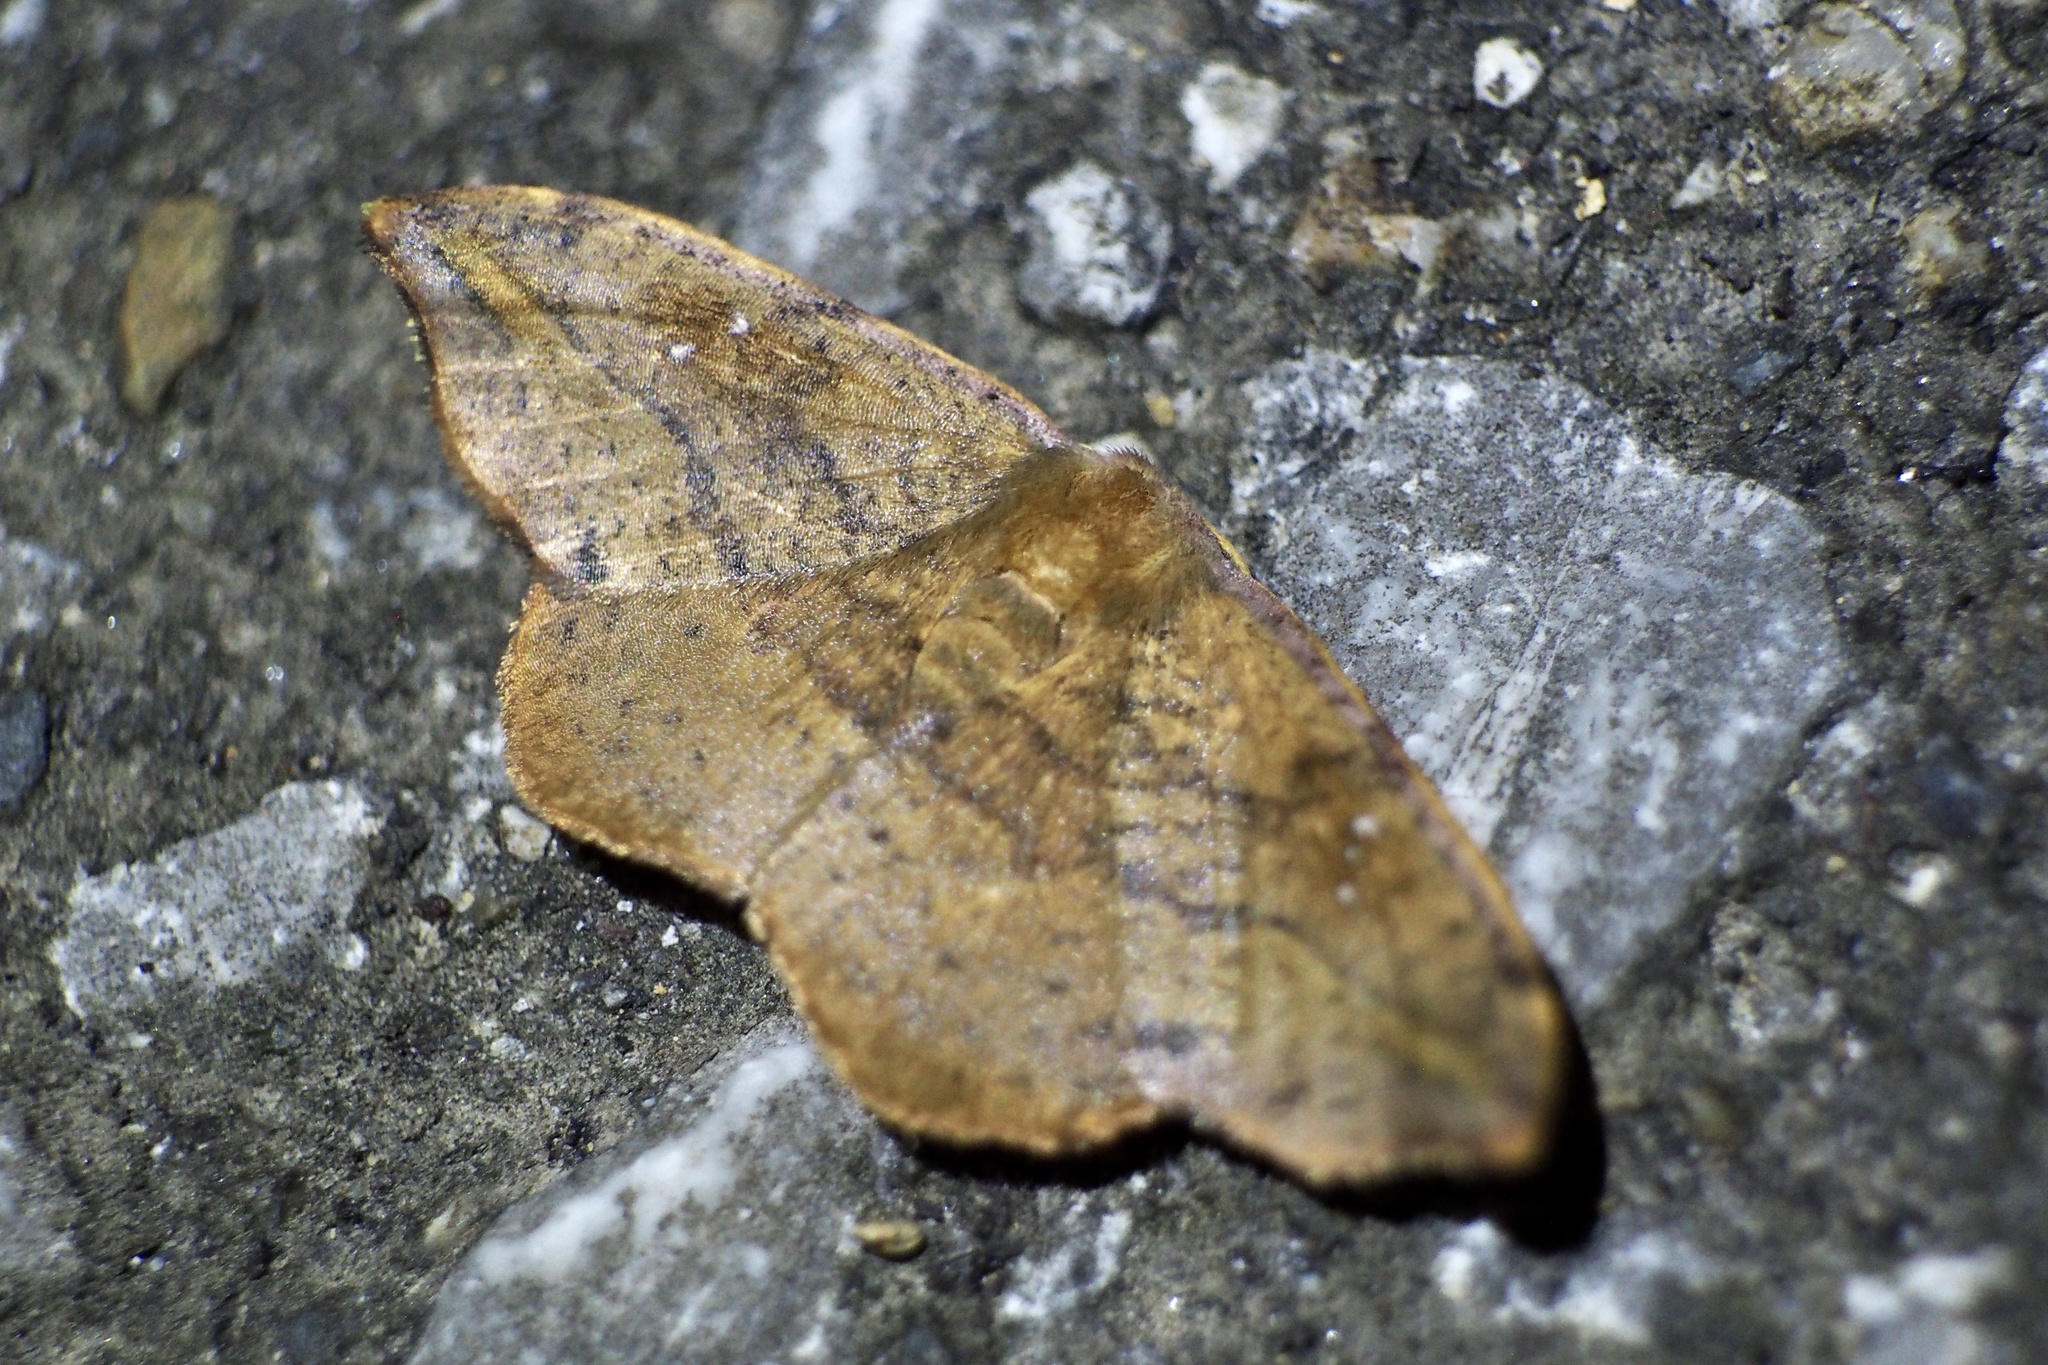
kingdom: Animalia
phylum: Arthropoda
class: Insecta
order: Lepidoptera
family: Drepanidae
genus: Oreta
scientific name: Oreta pulchripes
